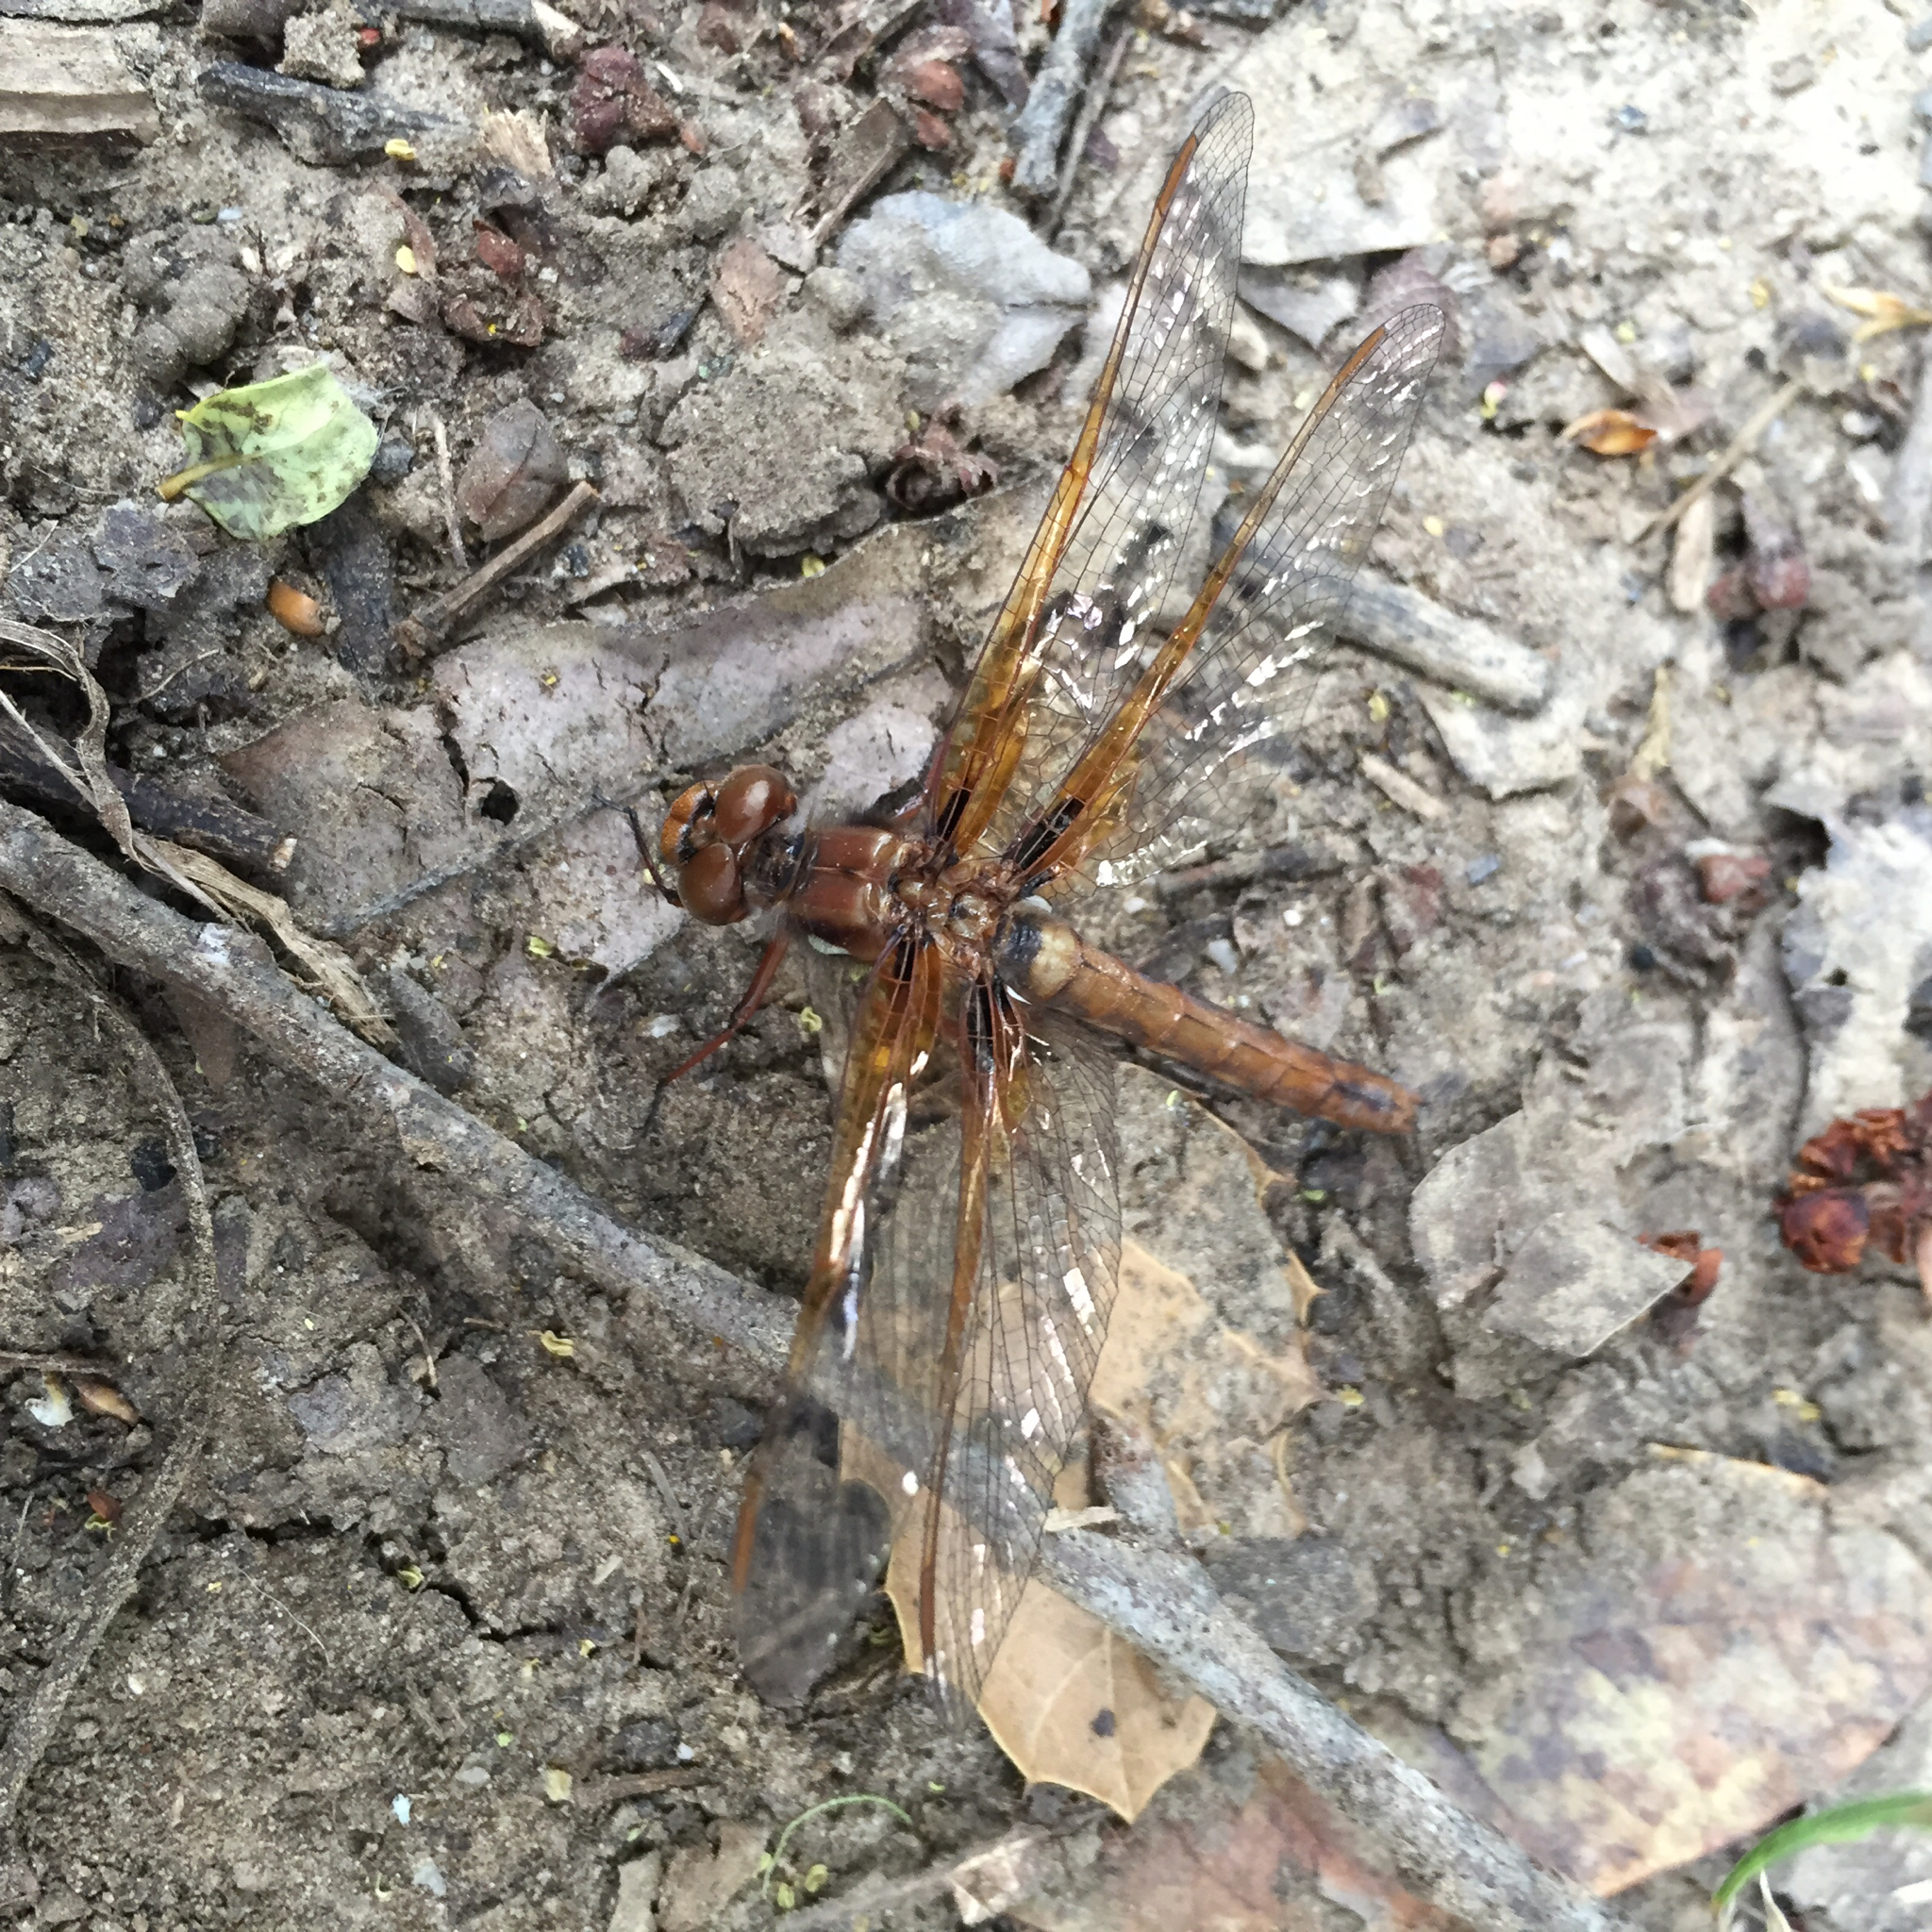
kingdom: Animalia
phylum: Arthropoda
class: Insecta
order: Odonata
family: Libellulidae
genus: Sympetrum
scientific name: Sympetrum illotum
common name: Cardinal meadowhawk
